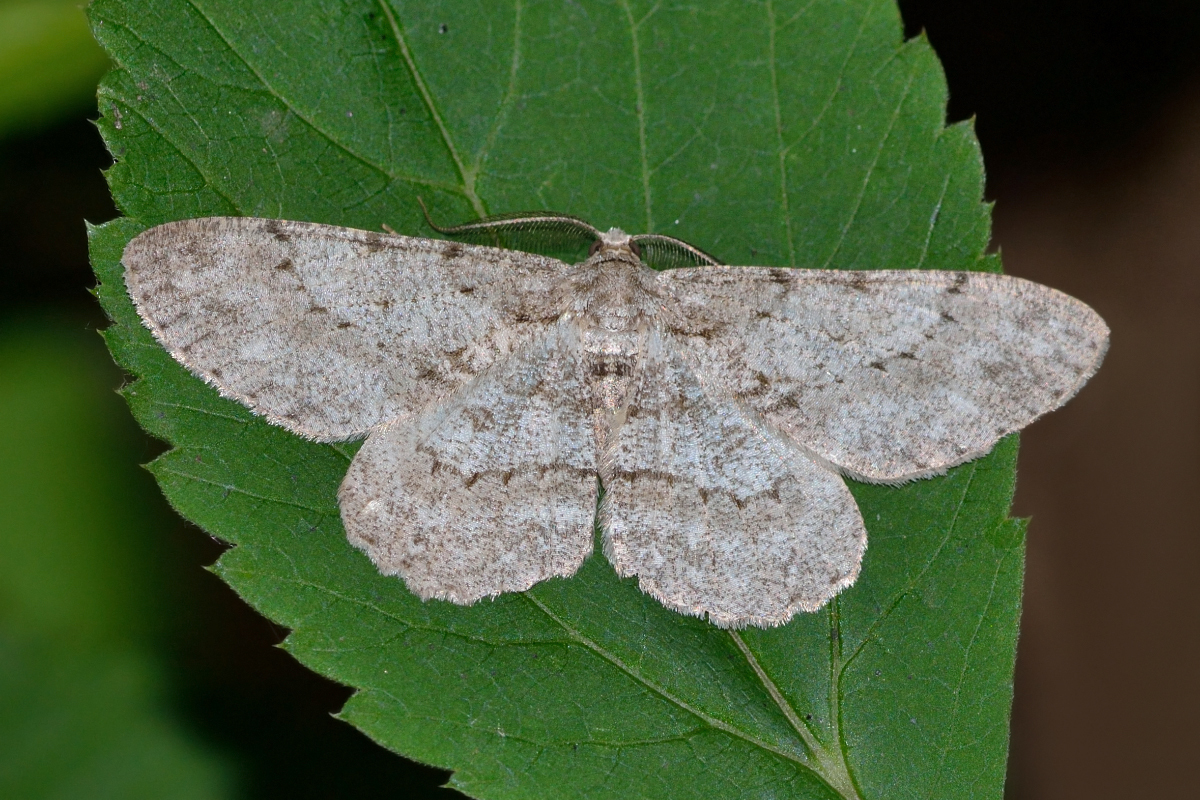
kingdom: Animalia
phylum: Arthropoda
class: Insecta
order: Lepidoptera
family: Geometridae
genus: Hypomecis
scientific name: Hypomecis punctinalis
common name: Pale oak beauty
